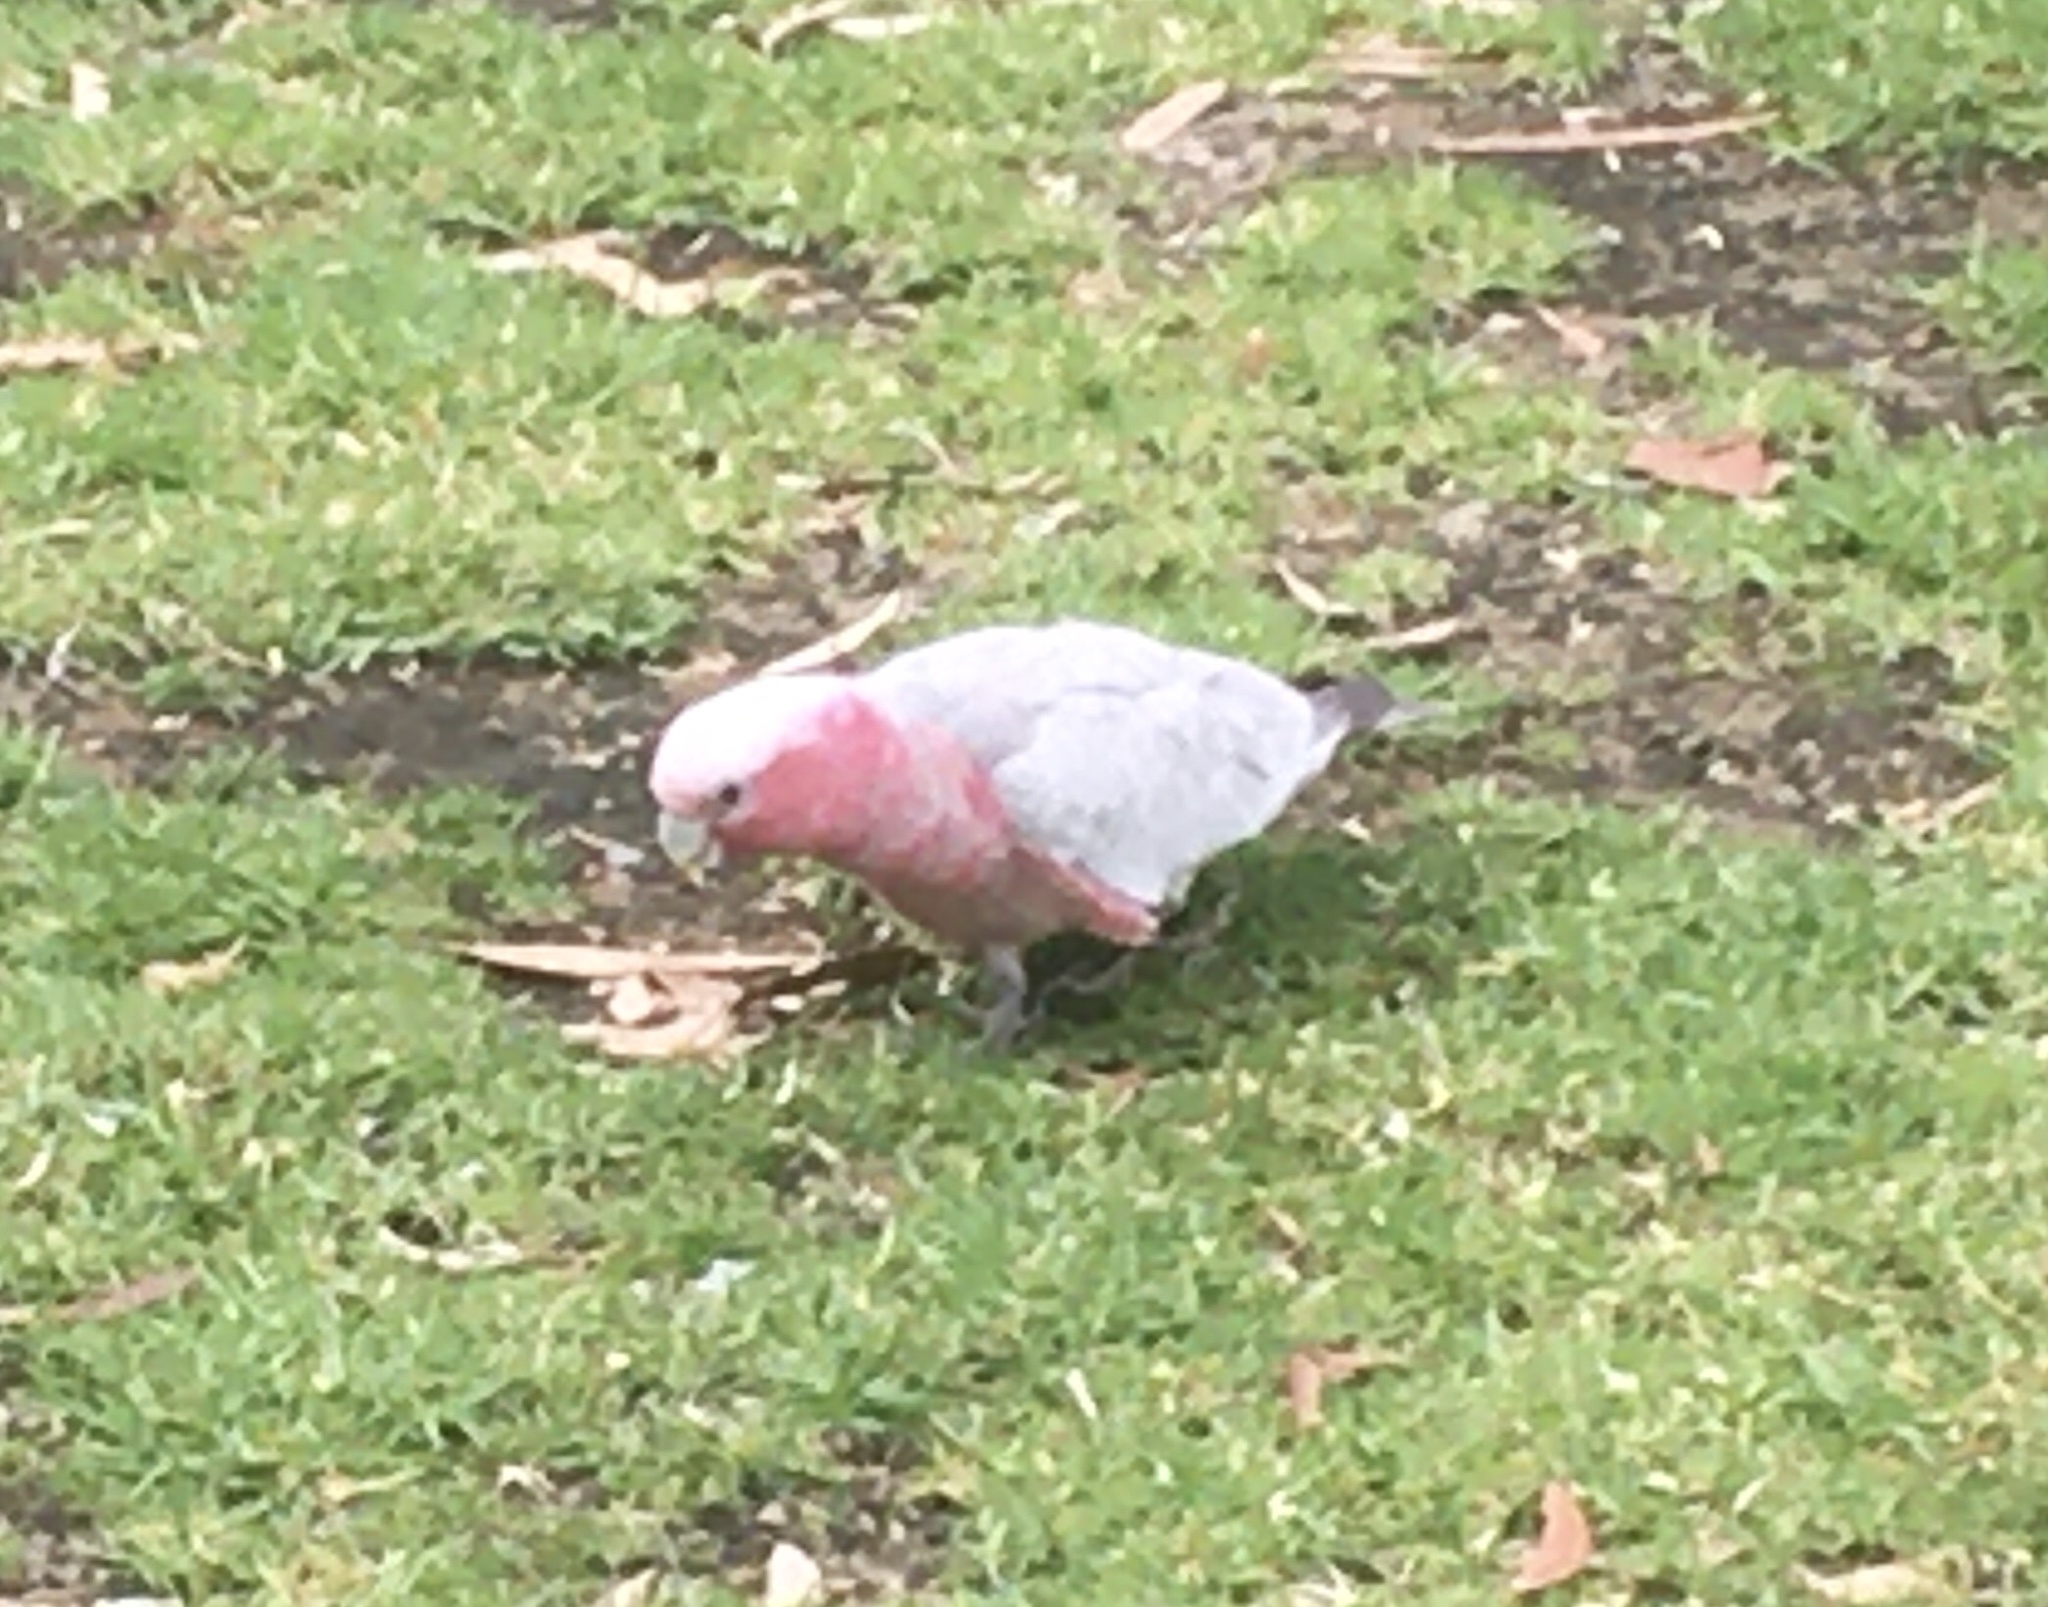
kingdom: Animalia
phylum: Chordata
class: Aves
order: Psittaciformes
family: Psittacidae
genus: Eolophus
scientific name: Eolophus roseicapilla
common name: Galah
